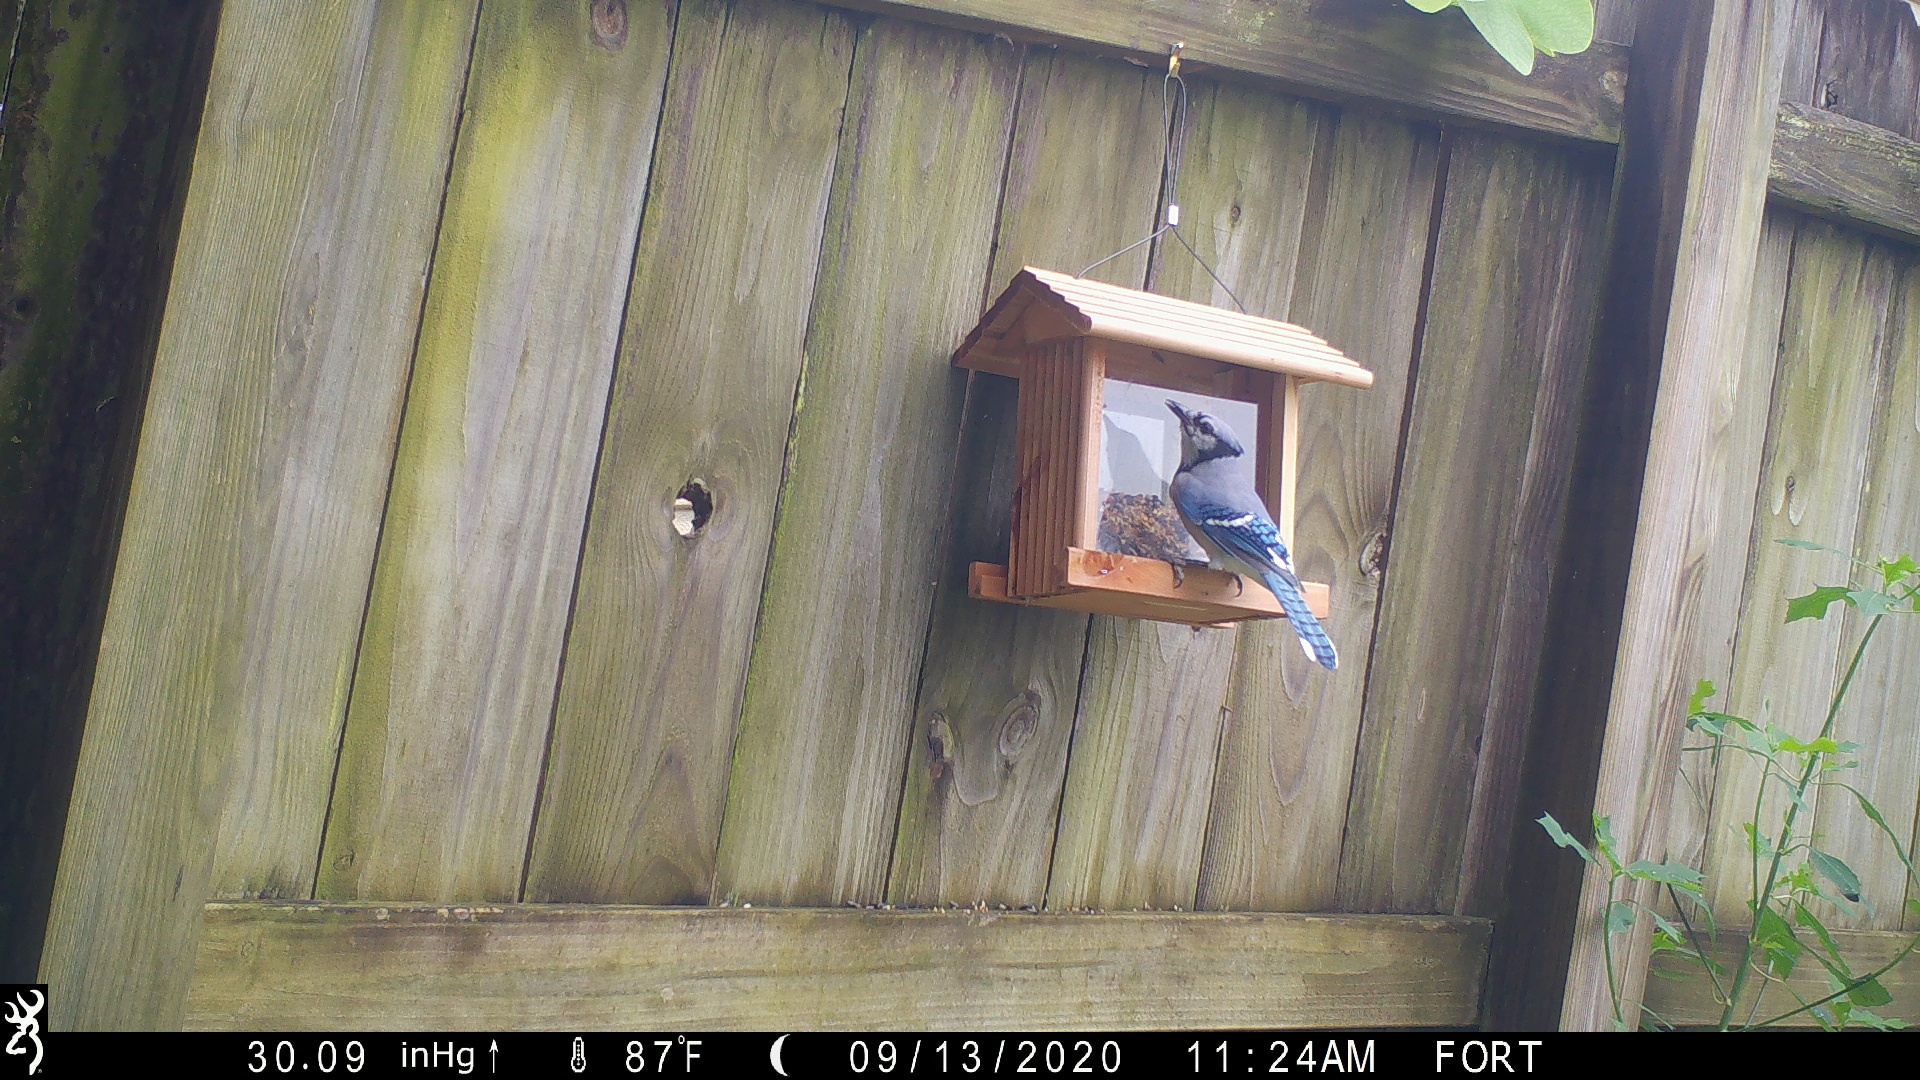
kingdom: Animalia
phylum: Chordata
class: Aves
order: Passeriformes
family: Corvidae
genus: Cyanocitta
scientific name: Cyanocitta cristata
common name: Blue jay
